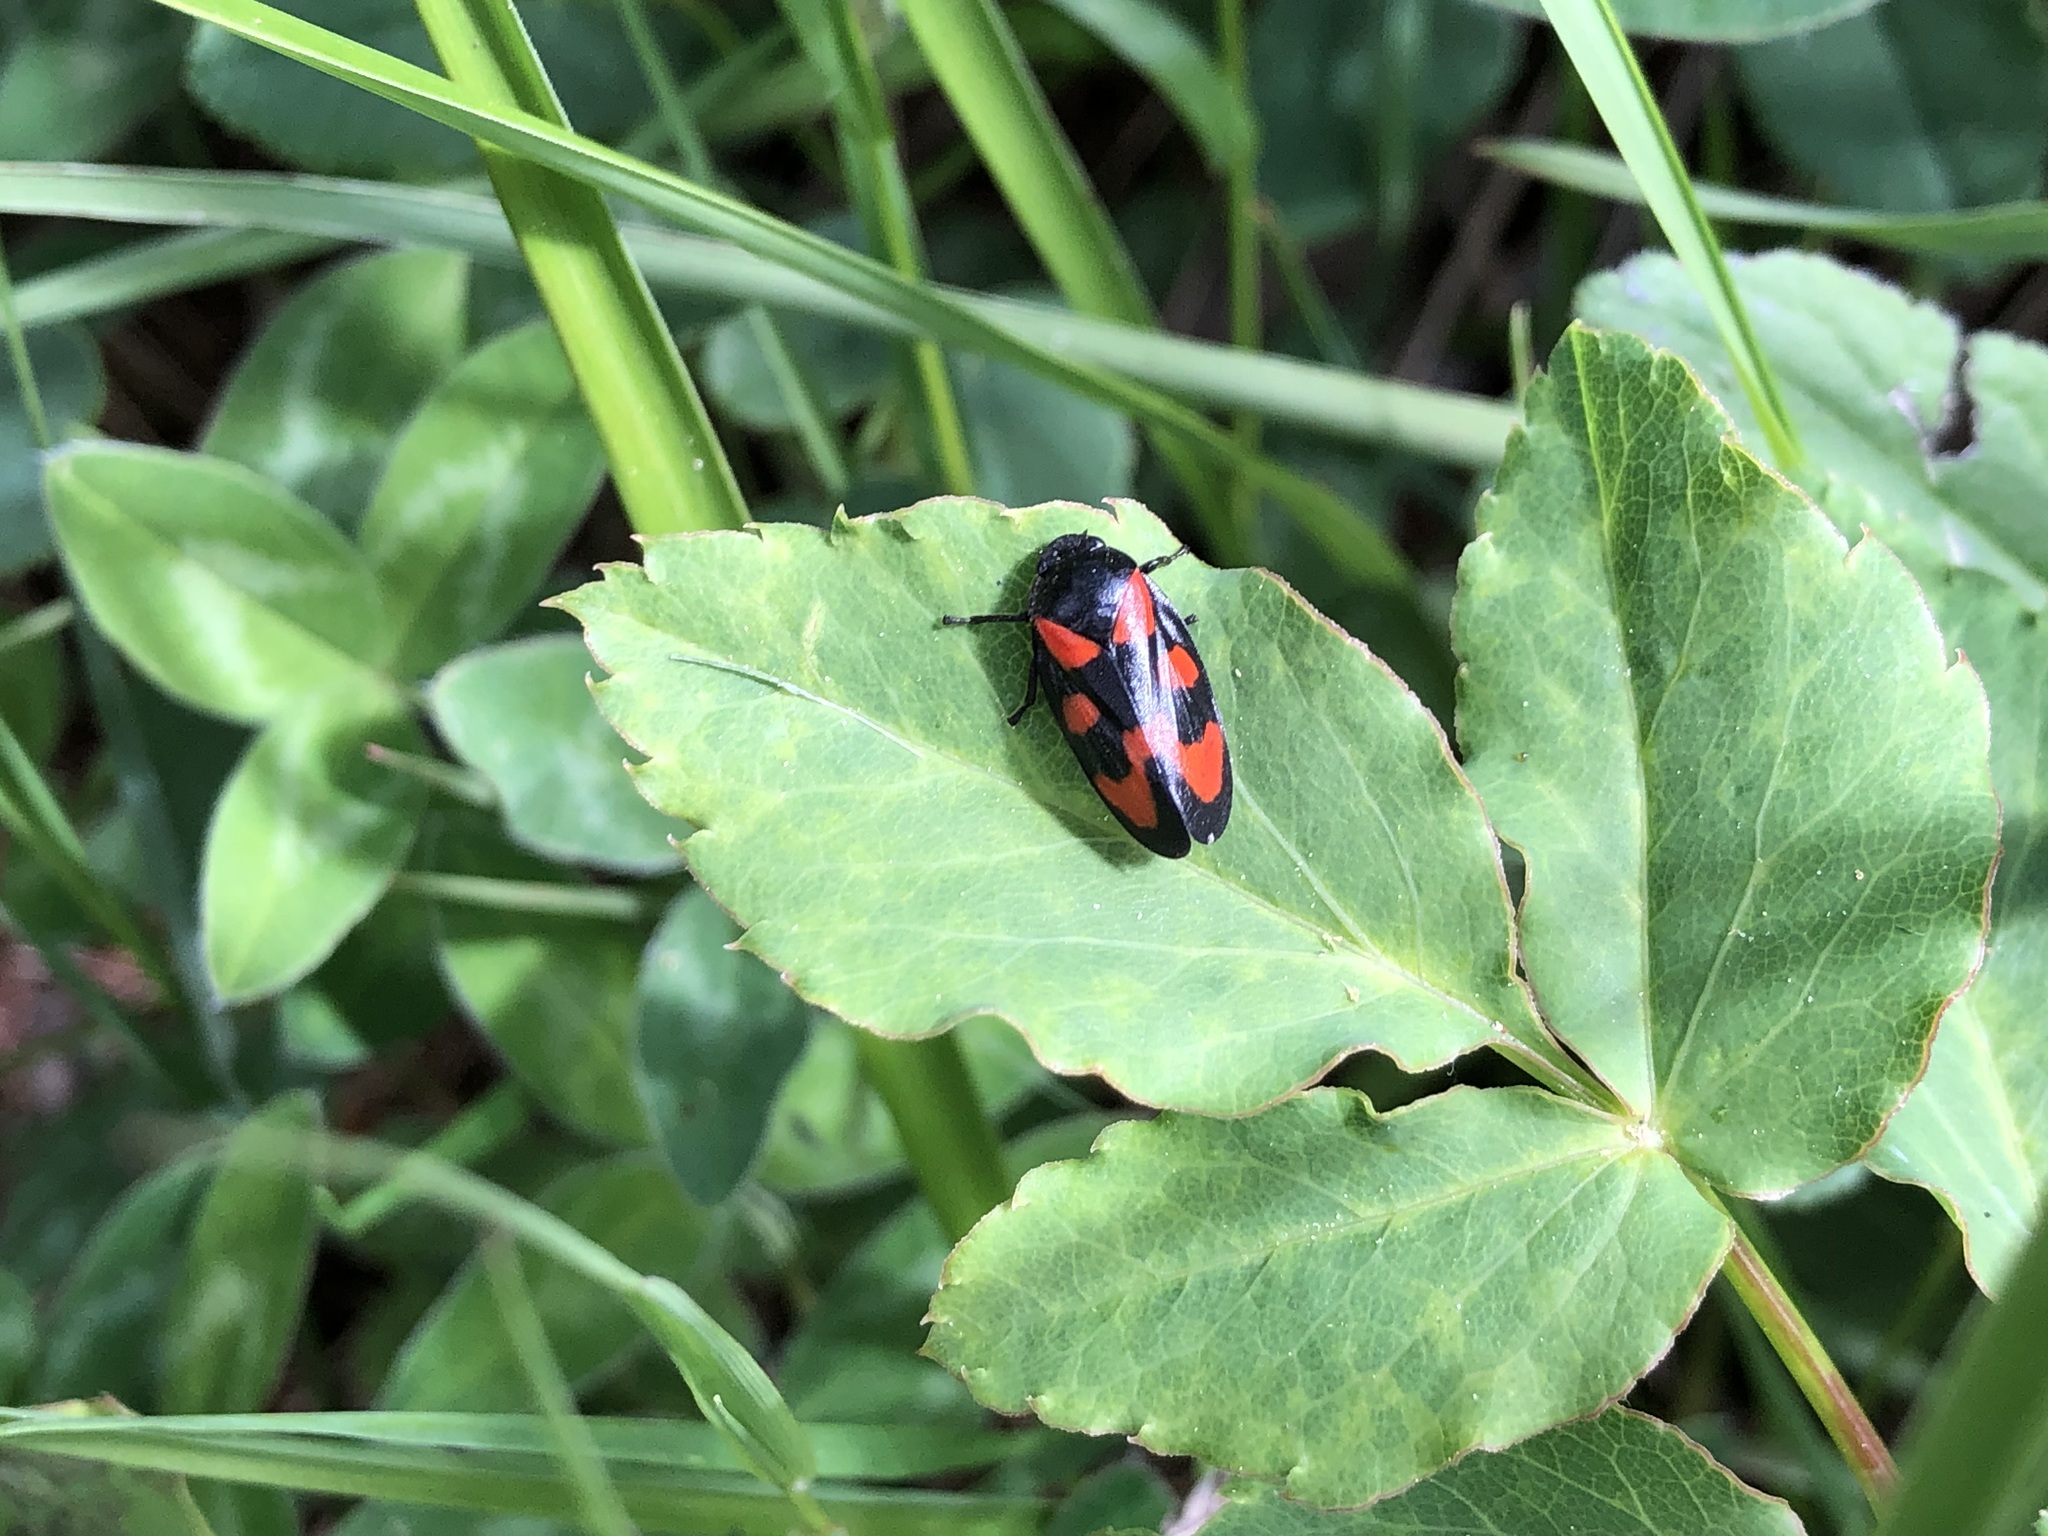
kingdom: Animalia
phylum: Arthropoda
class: Insecta
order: Hemiptera
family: Cercopidae
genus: Cercopis
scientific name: Cercopis vulnerata
